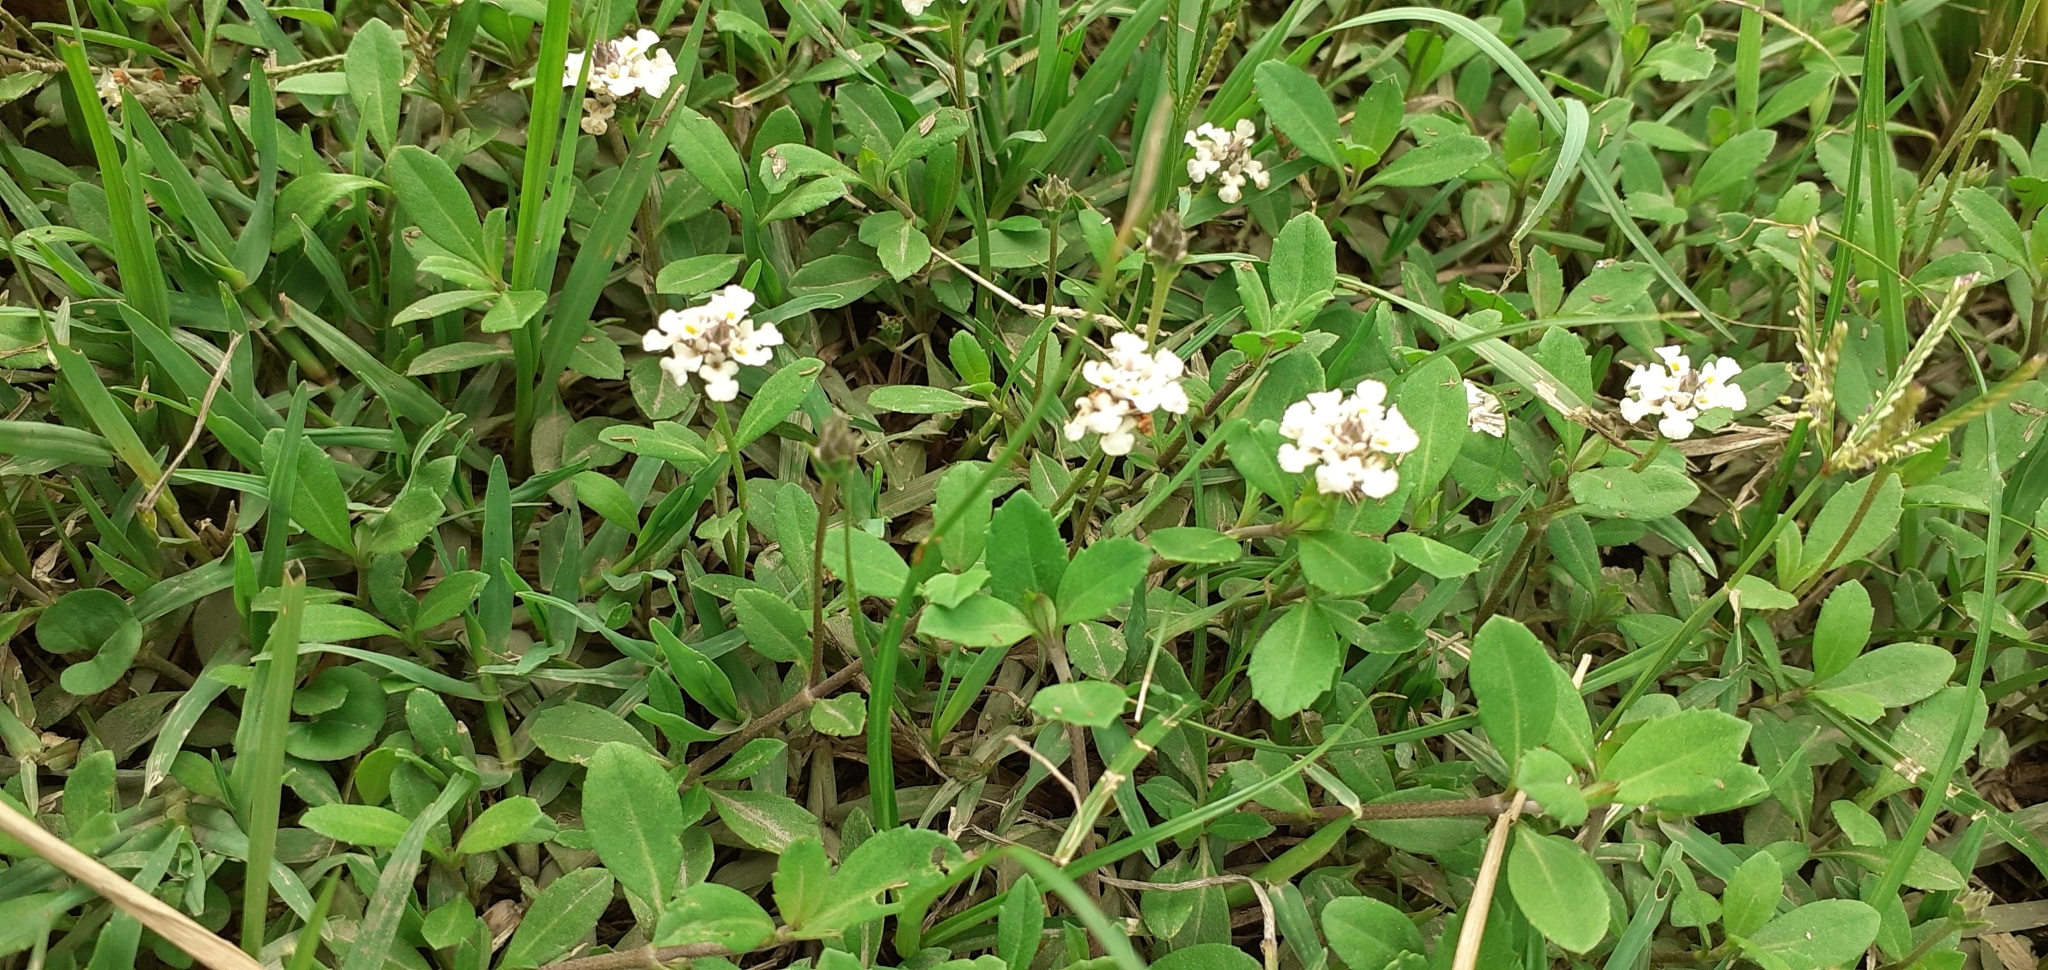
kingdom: Plantae
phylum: Tracheophyta
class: Magnoliopsida
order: Lamiales
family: Verbenaceae
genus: Phyla
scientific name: Phyla nodiflora
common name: Frogfruit
